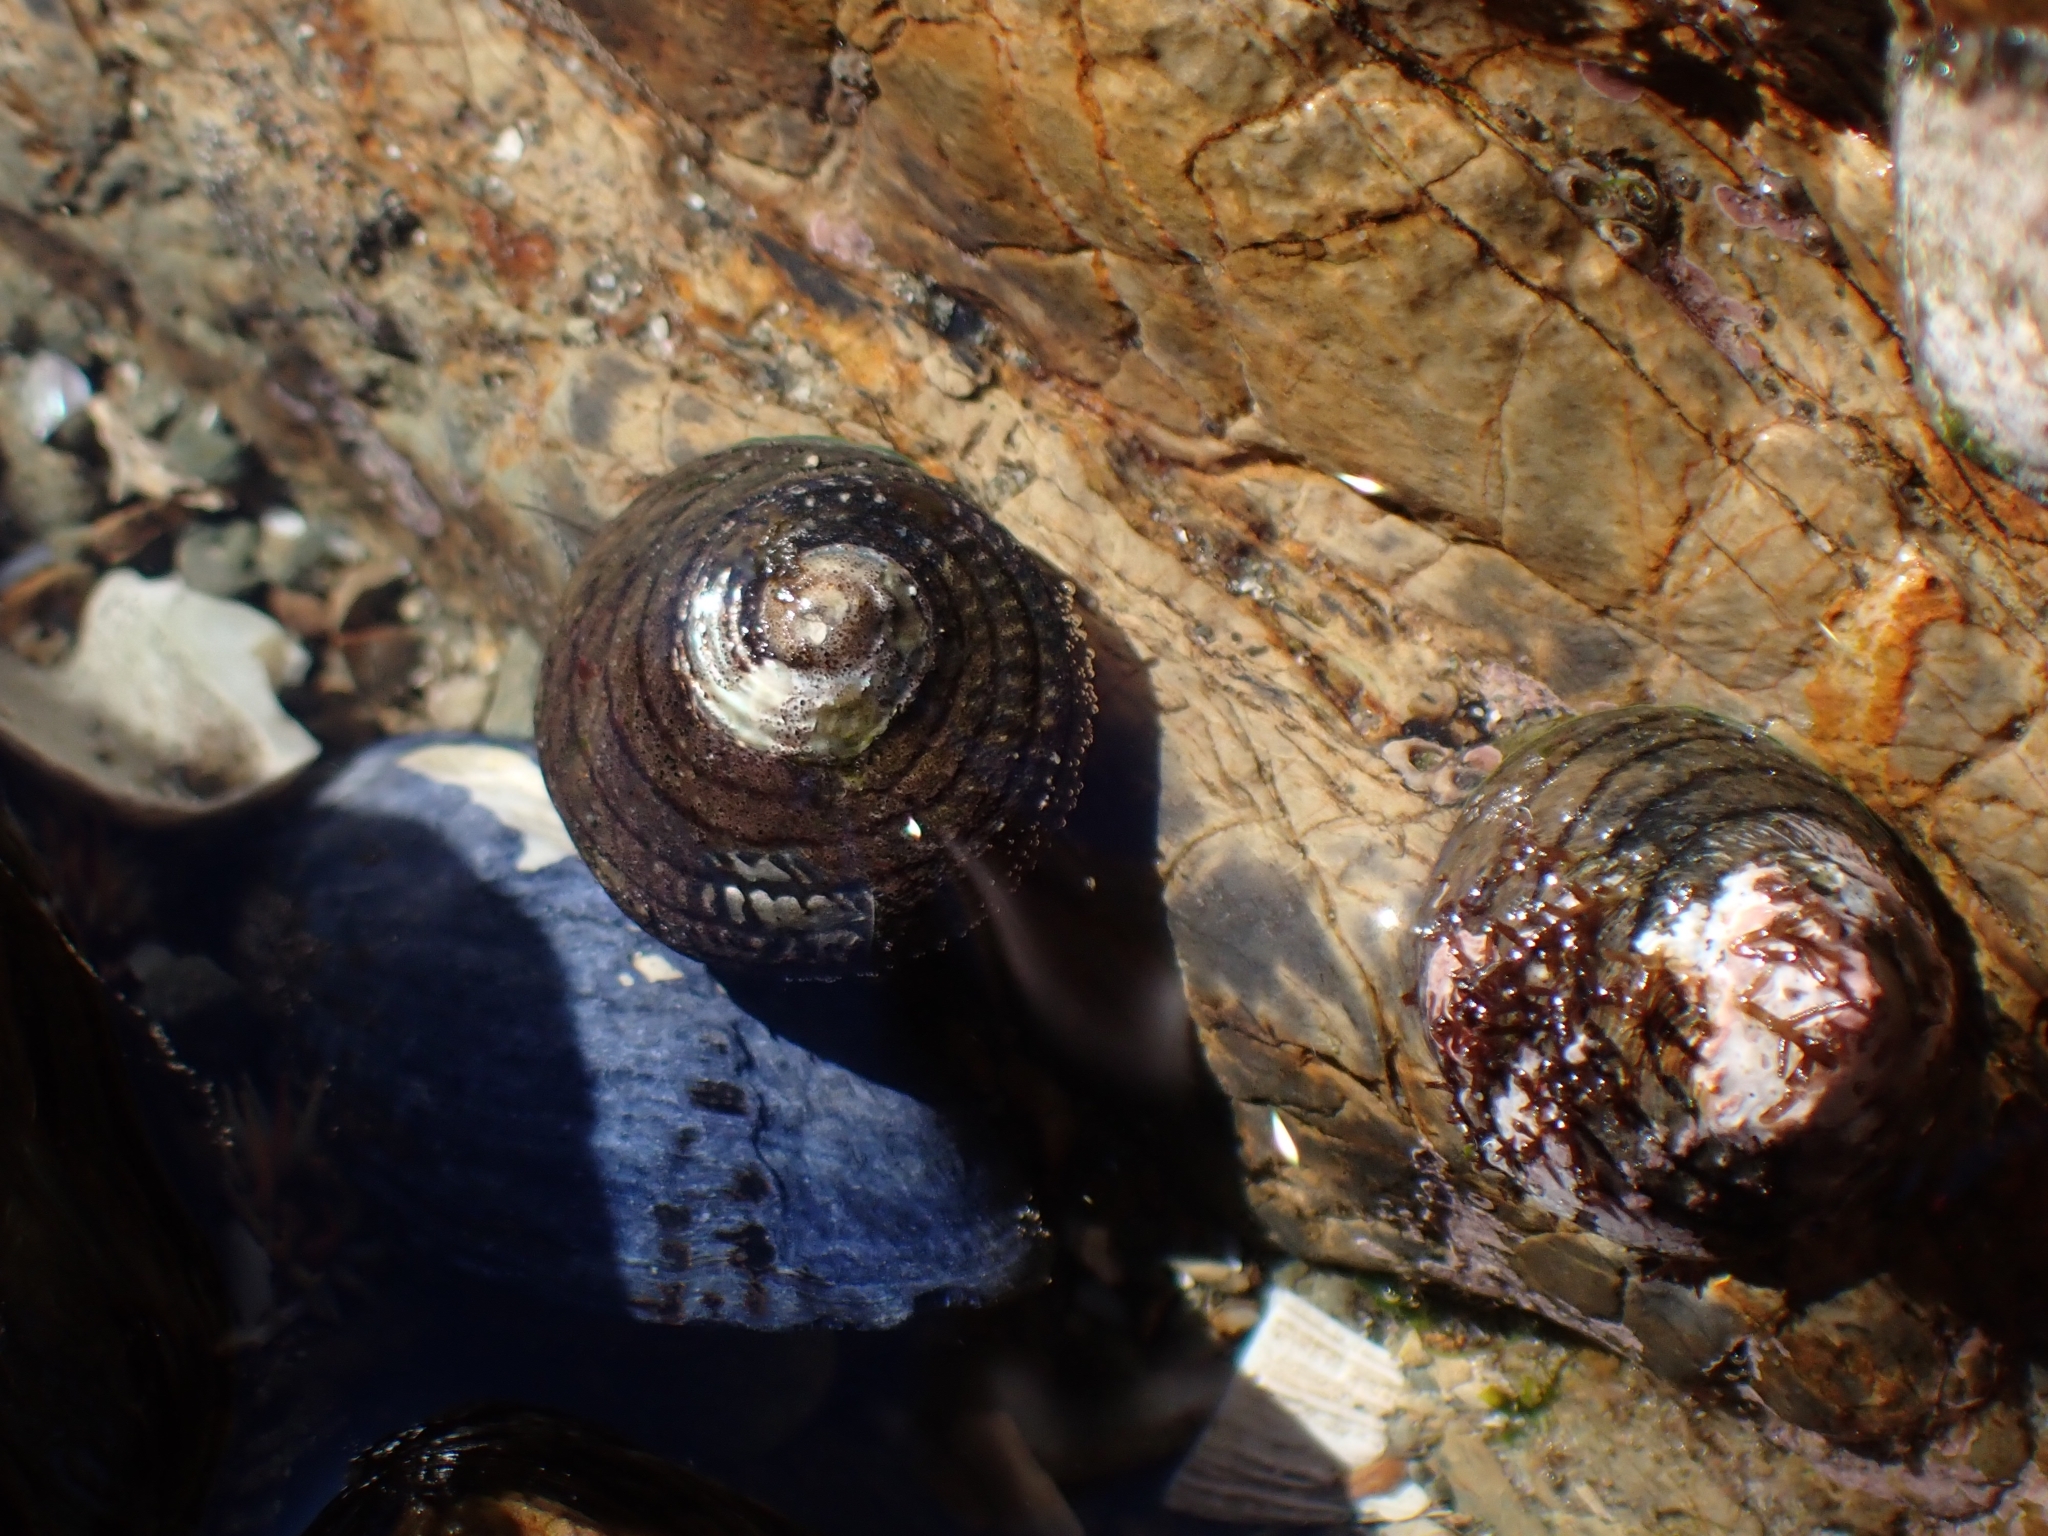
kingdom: Animalia
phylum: Mollusca
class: Gastropoda
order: Trochida
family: Trochidae
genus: Diloma
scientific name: Diloma aethiops
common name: Scorched monodont
